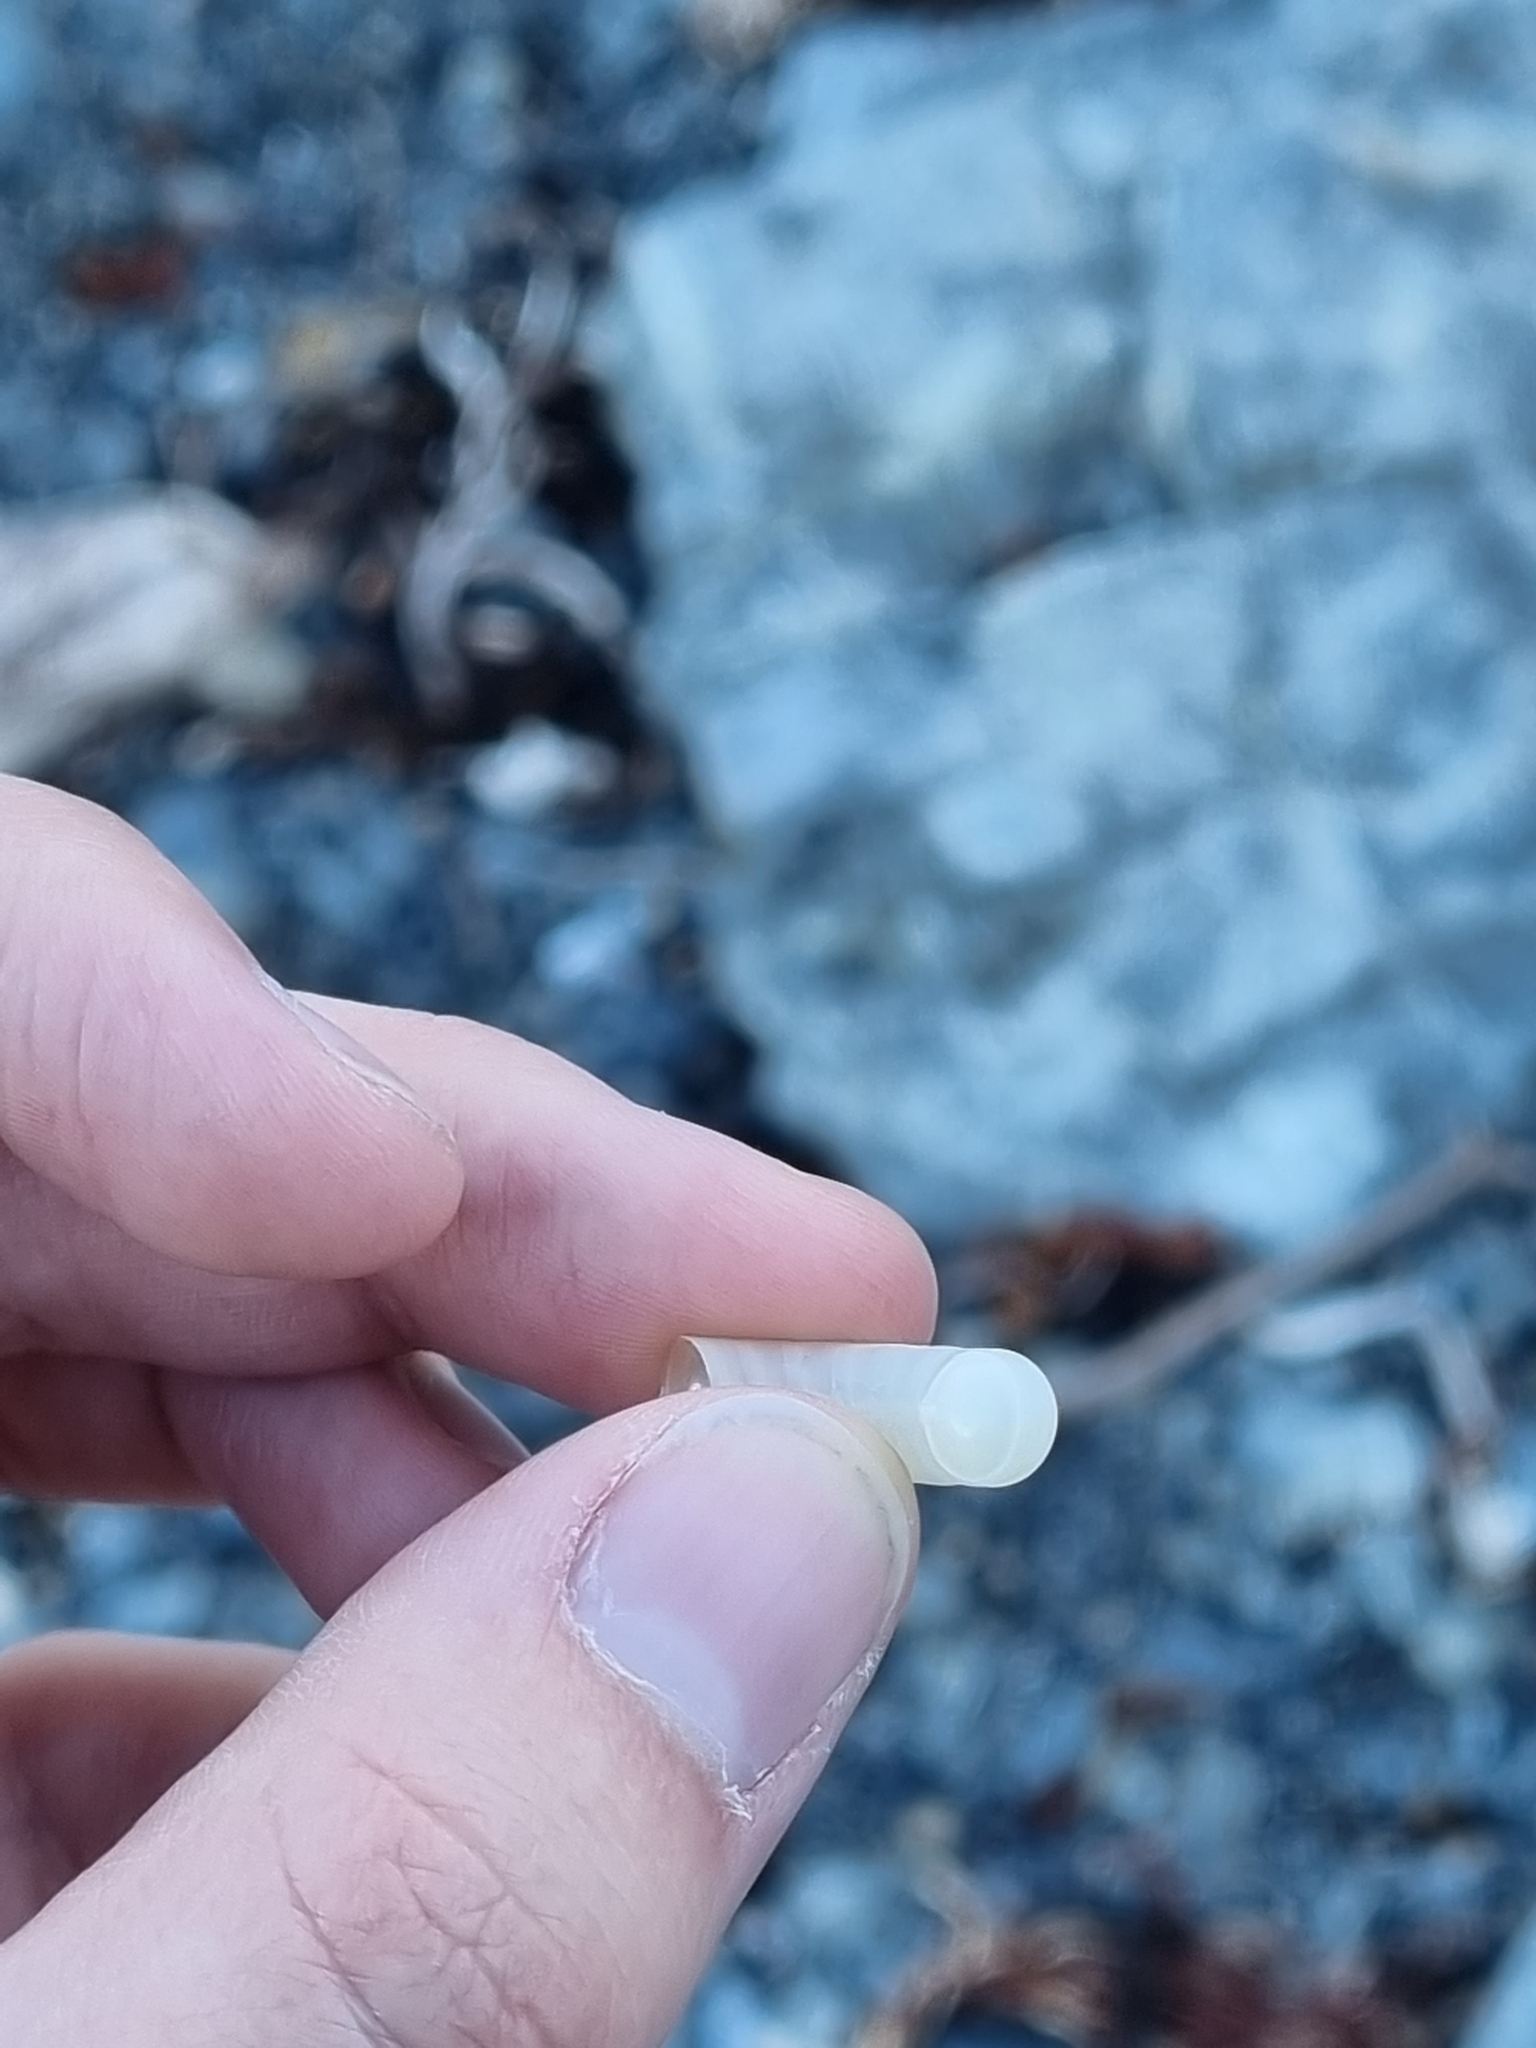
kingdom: Animalia
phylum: Mollusca
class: Cephalopoda
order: Spirulida
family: Spirulidae
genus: Spirula
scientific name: Spirula spirula
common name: Ram's horn squid
